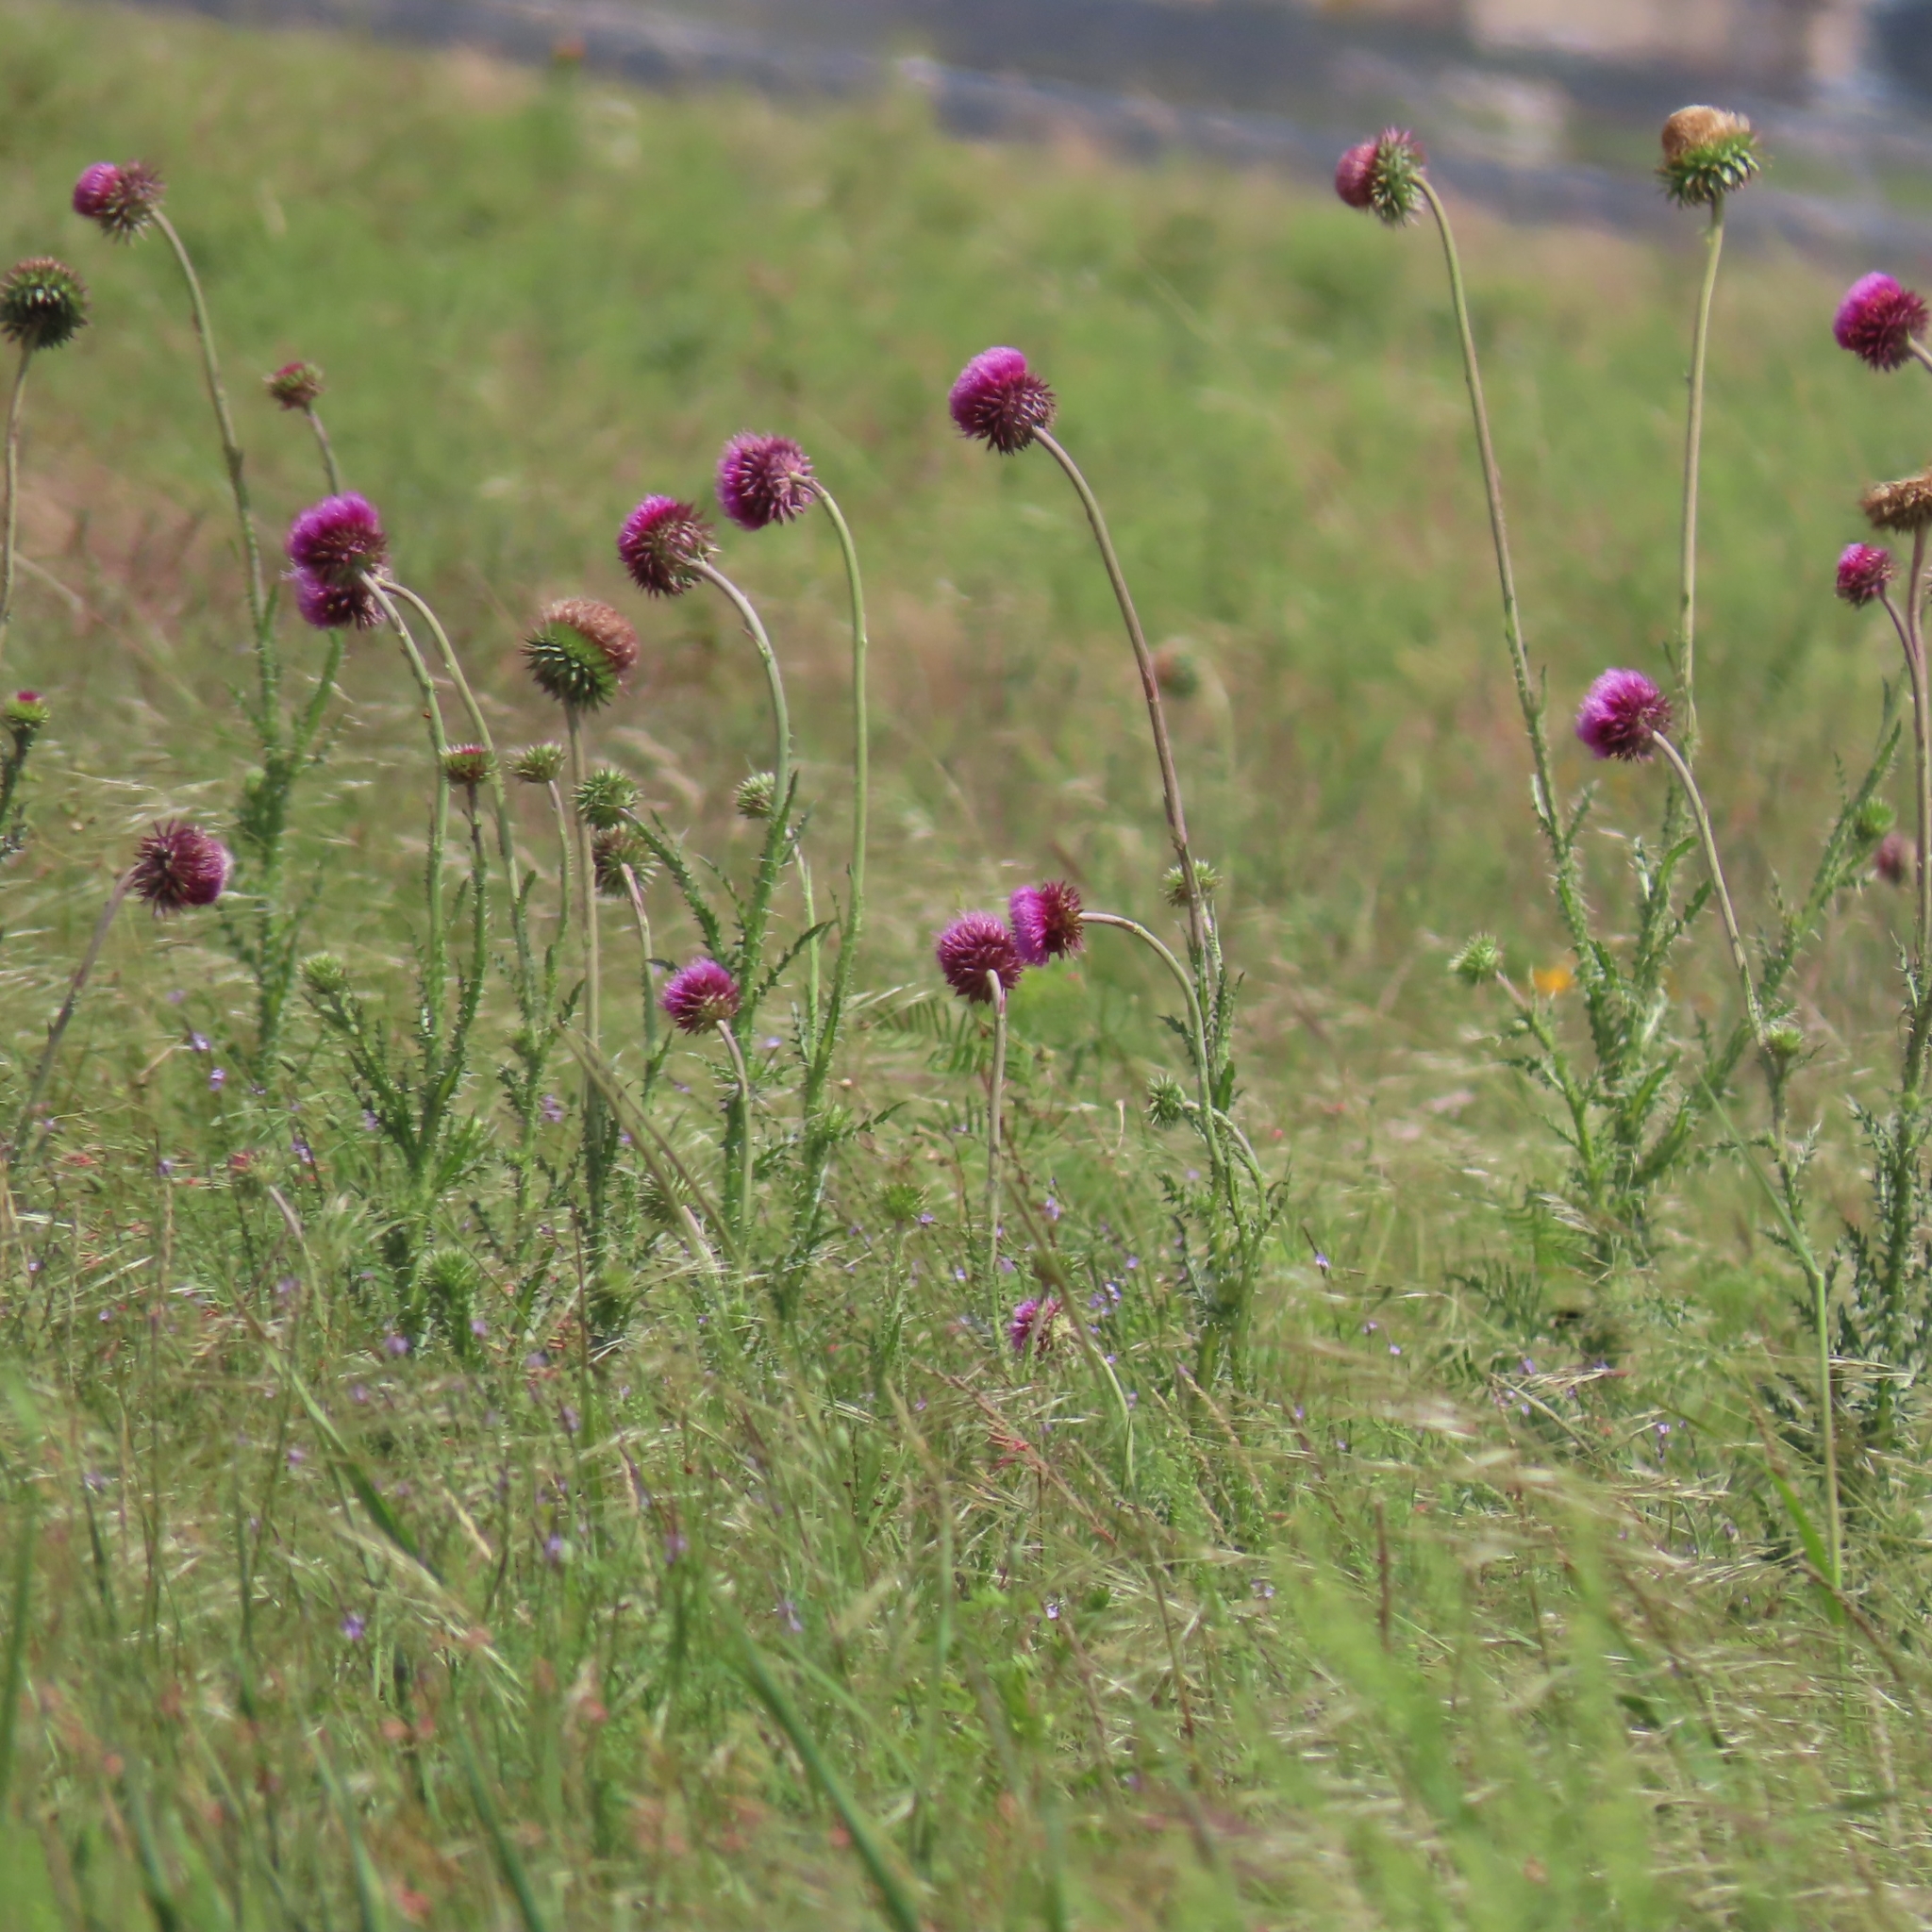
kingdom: Plantae
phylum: Tracheophyta
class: Magnoliopsida
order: Asterales
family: Asteraceae
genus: Carduus
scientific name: Carduus nutans
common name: Musk thistle
